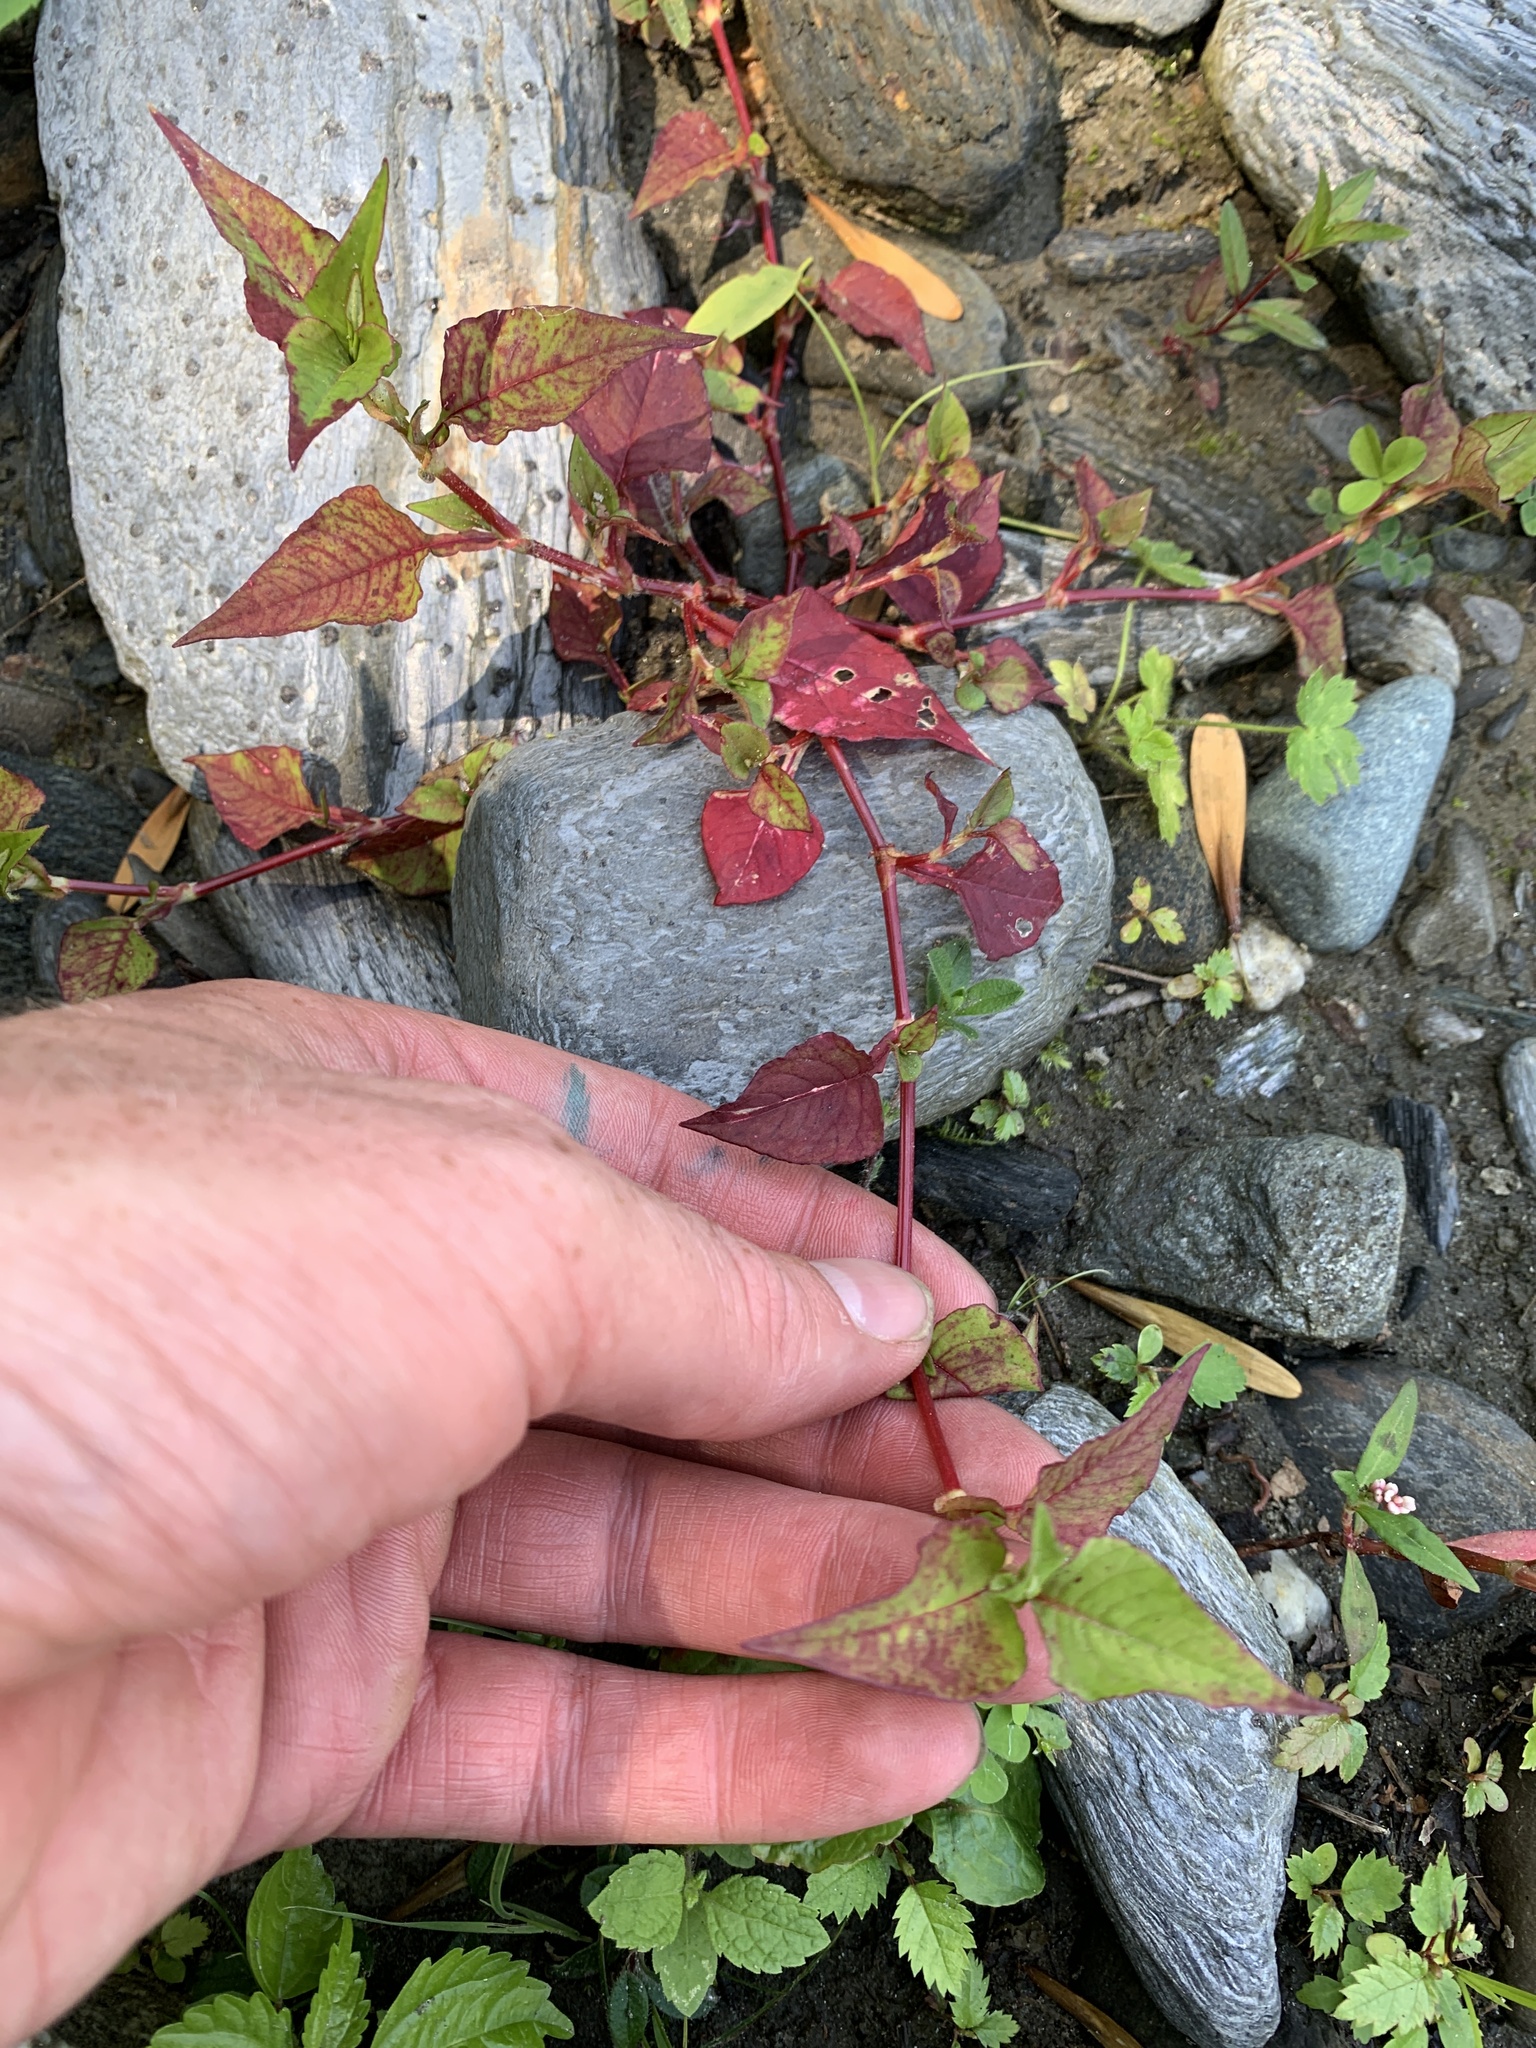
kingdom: Plantae
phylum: Tracheophyta
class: Magnoliopsida
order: Caryophyllales
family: Polygonaceae
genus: Persicaria
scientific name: Persicaria nepalensis
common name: Nepal persicaria
